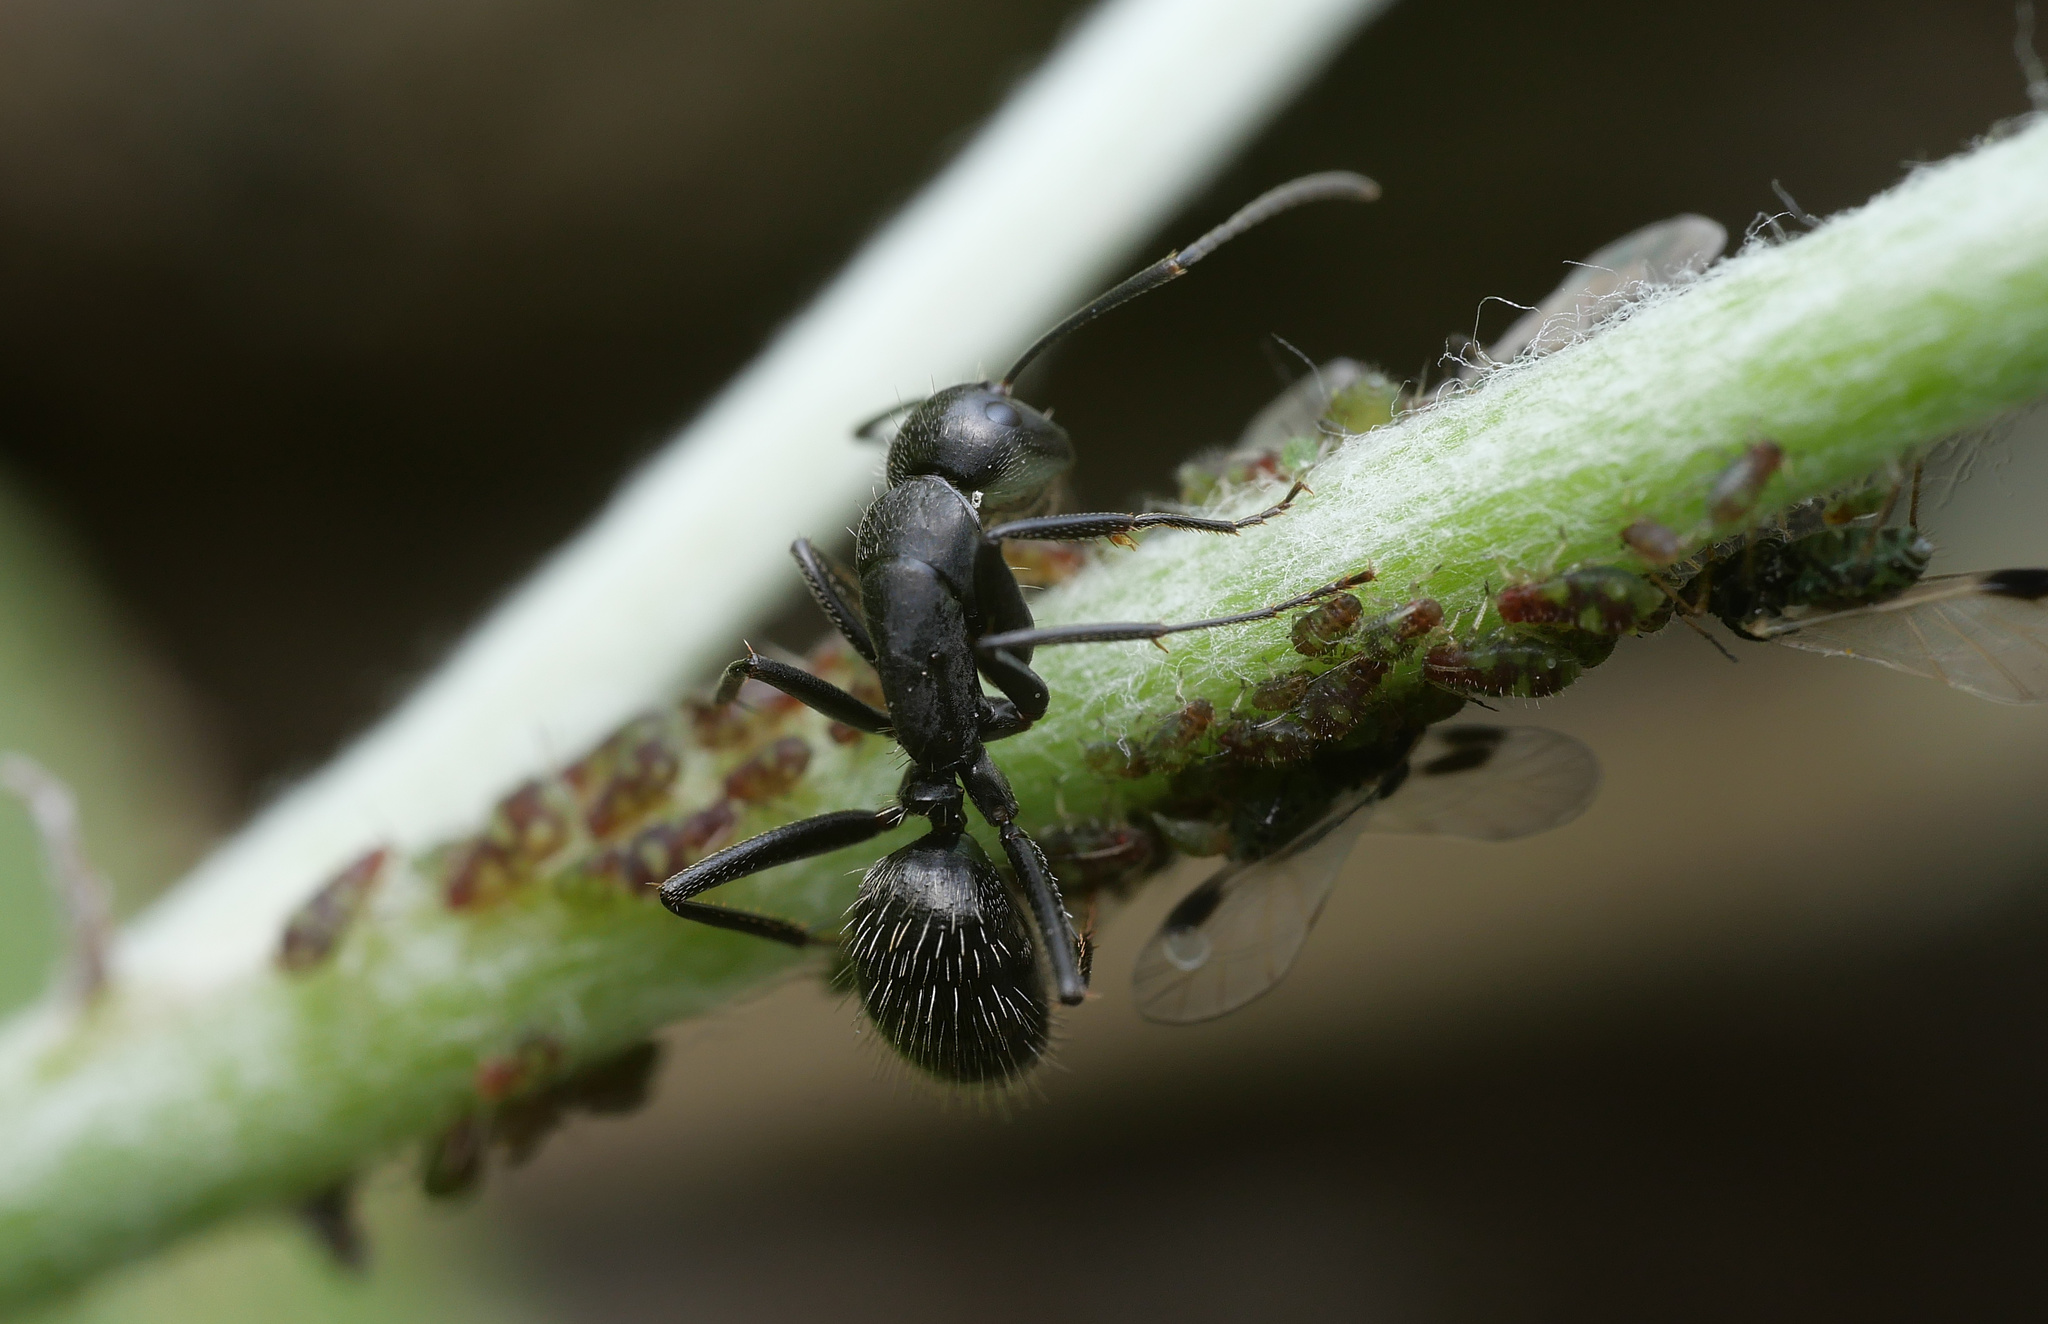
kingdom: Animalia
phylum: Arthropoda
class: Insecta
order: Hymenoptera
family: Formicidae
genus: Camponotus
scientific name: Camponotus vagus
